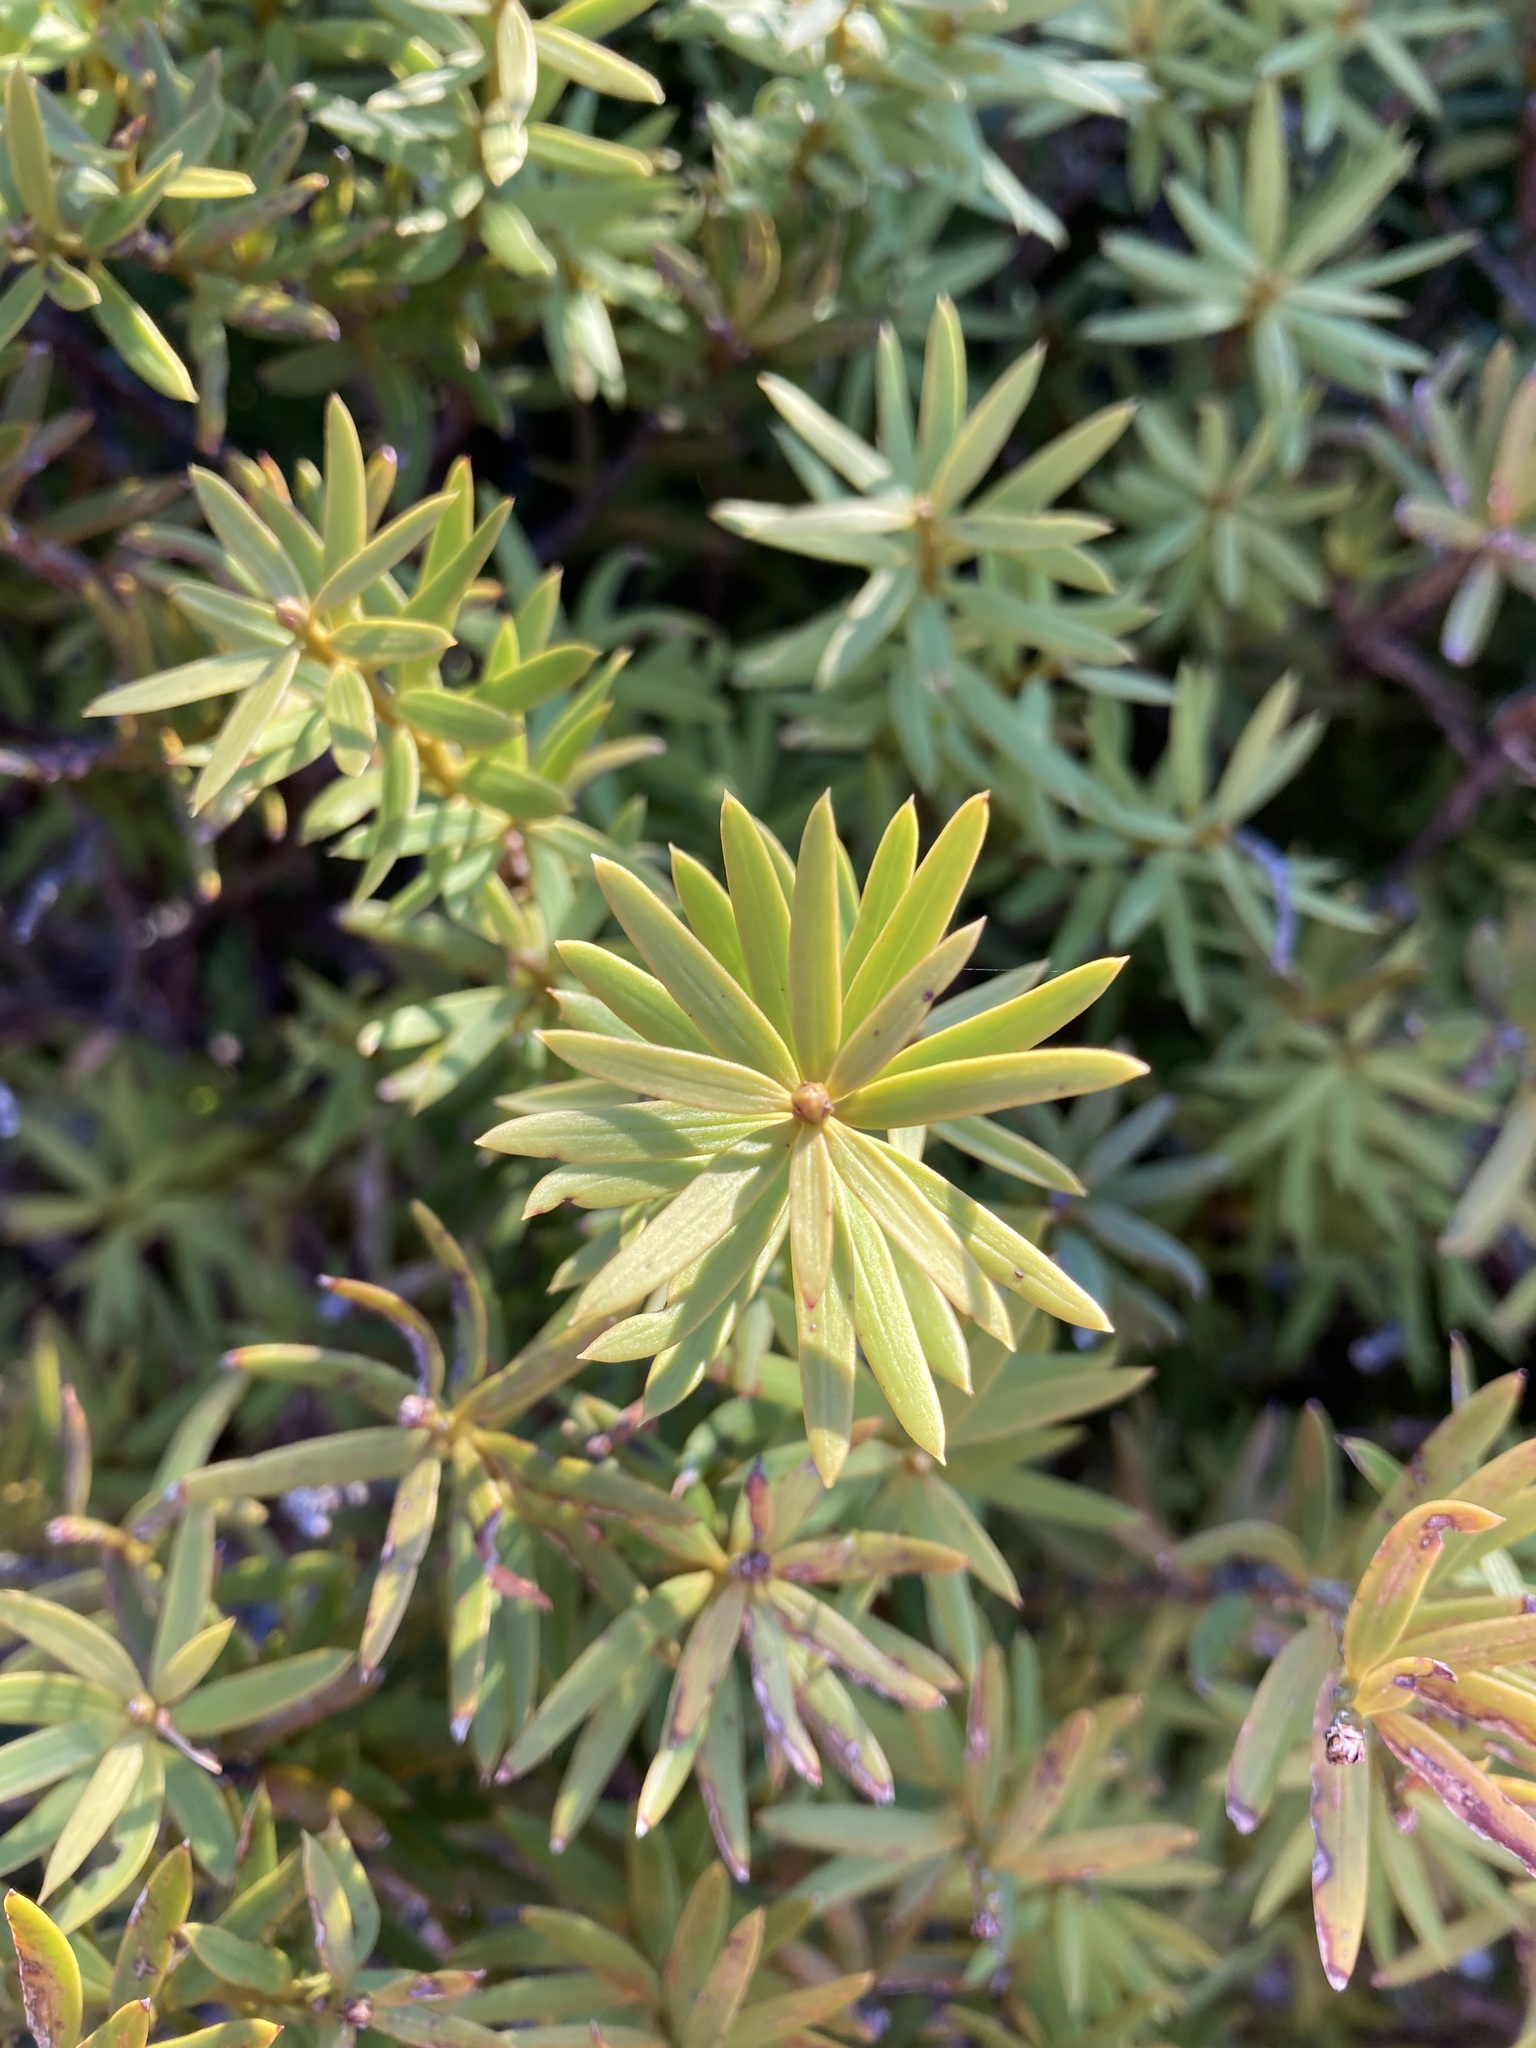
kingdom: Plantae
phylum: Tracheophyta
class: Pinopsida
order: Pinales
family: Podocarpaceae
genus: Podocarpus
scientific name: Podocarpus laetus
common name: Hall's totara
